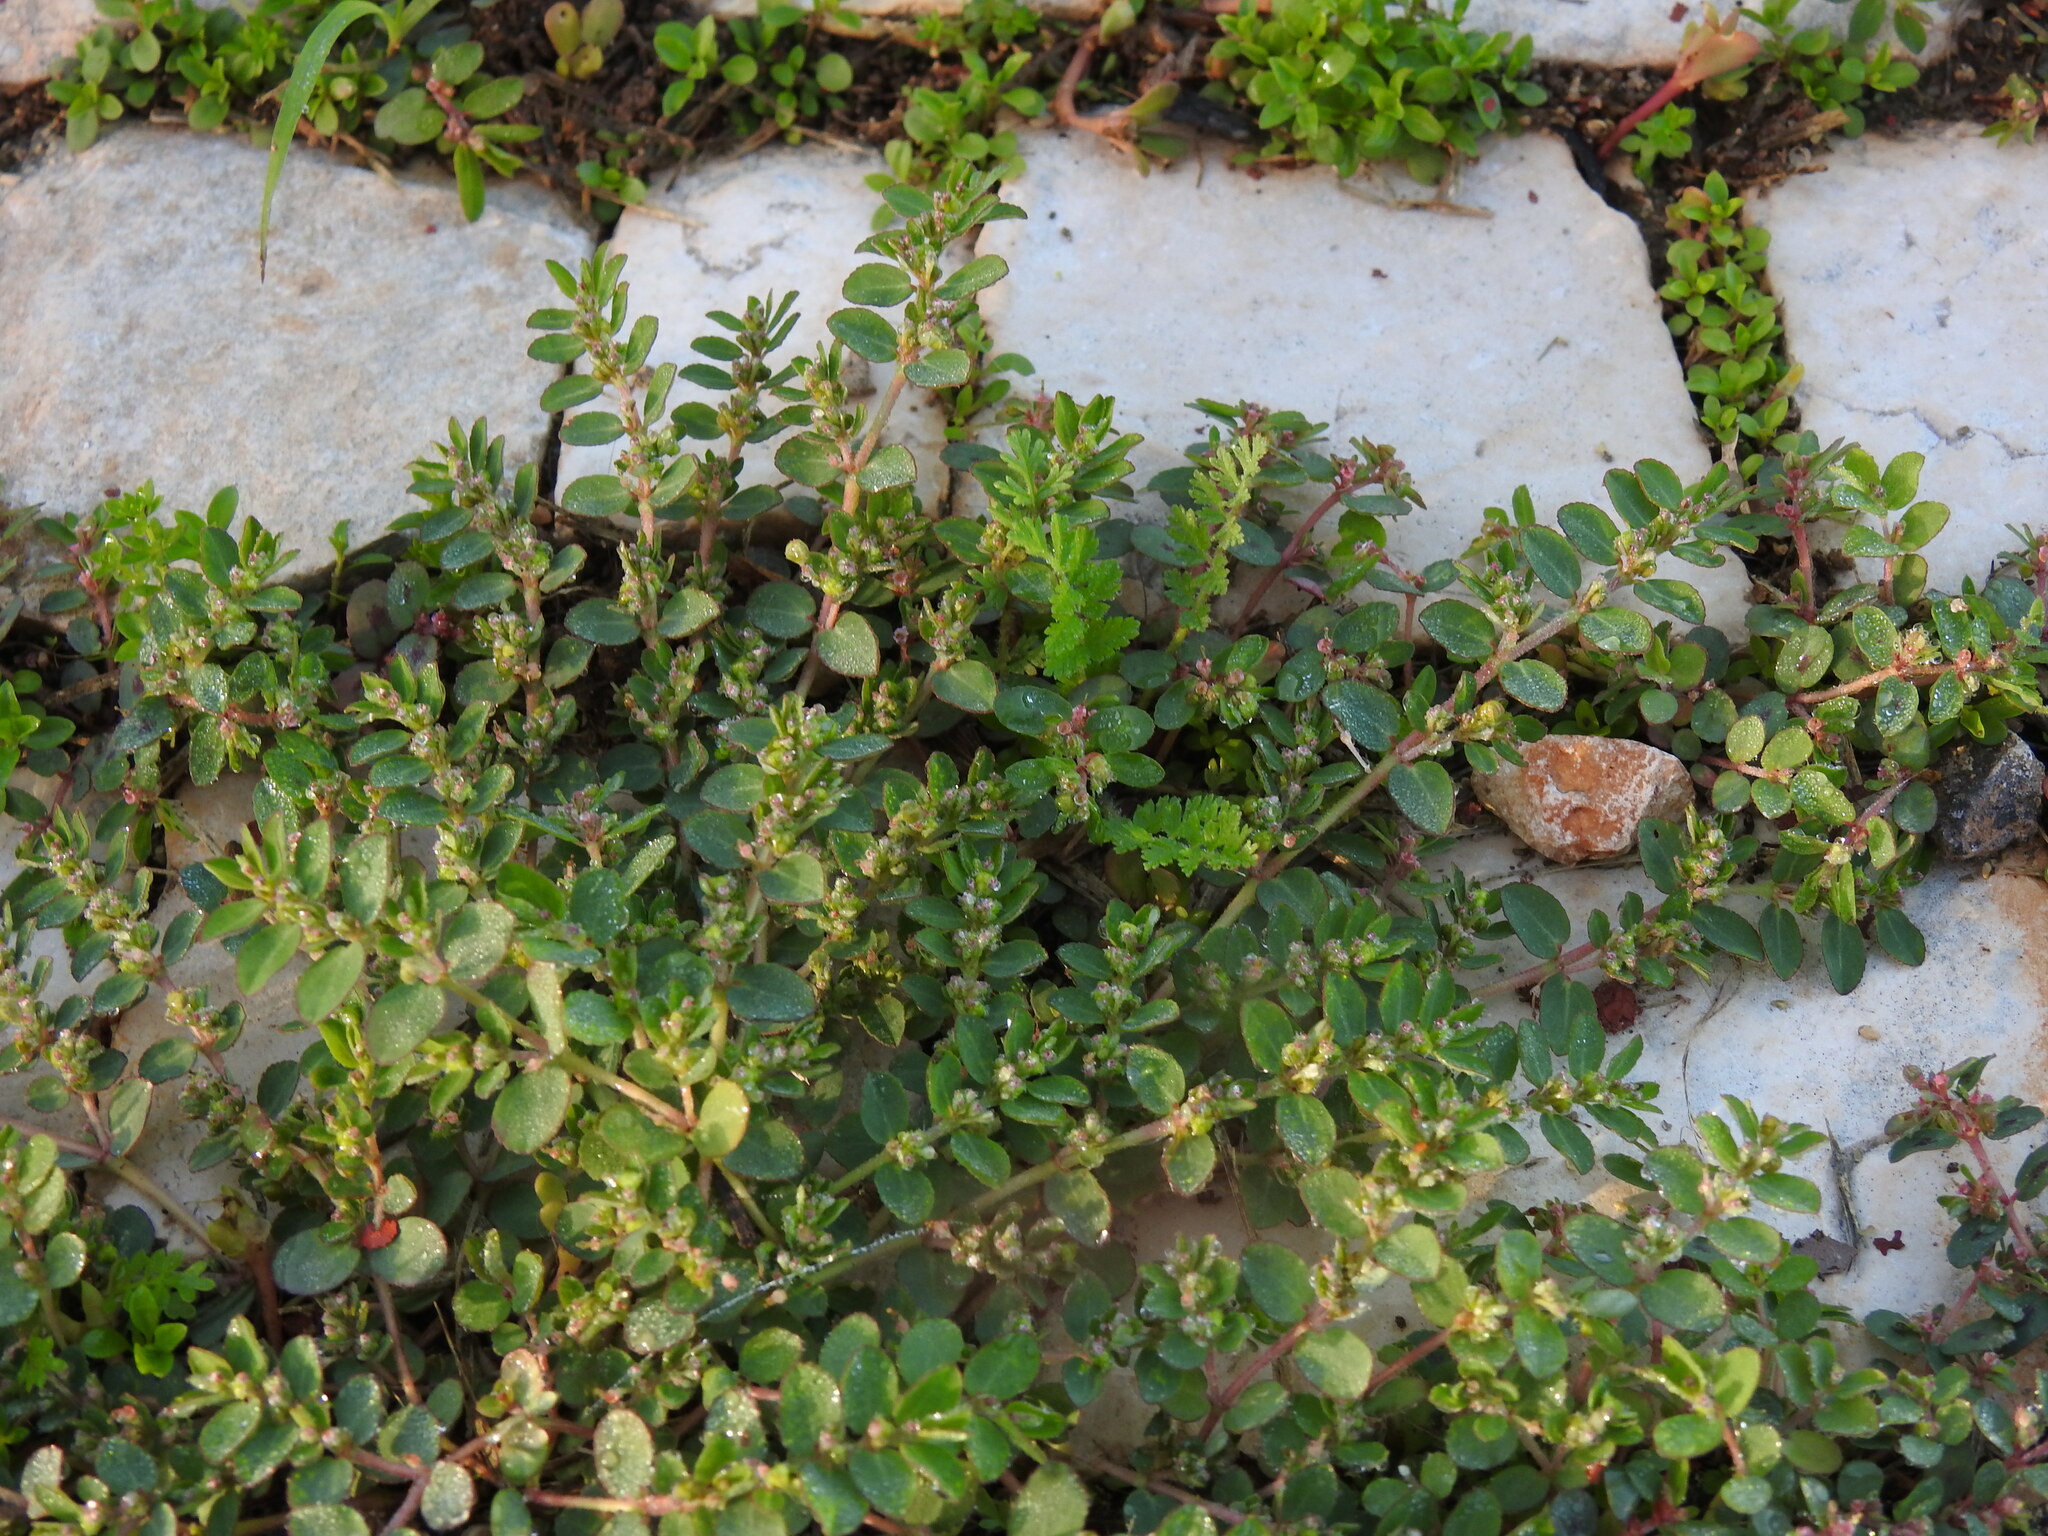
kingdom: Plantae
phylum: Tracheophyta
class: Magnoliopsida
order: Malpighiales
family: Euphorbiaceae
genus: Euphorbia
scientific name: Euphorbia prostrata
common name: Prostrate sandmat
